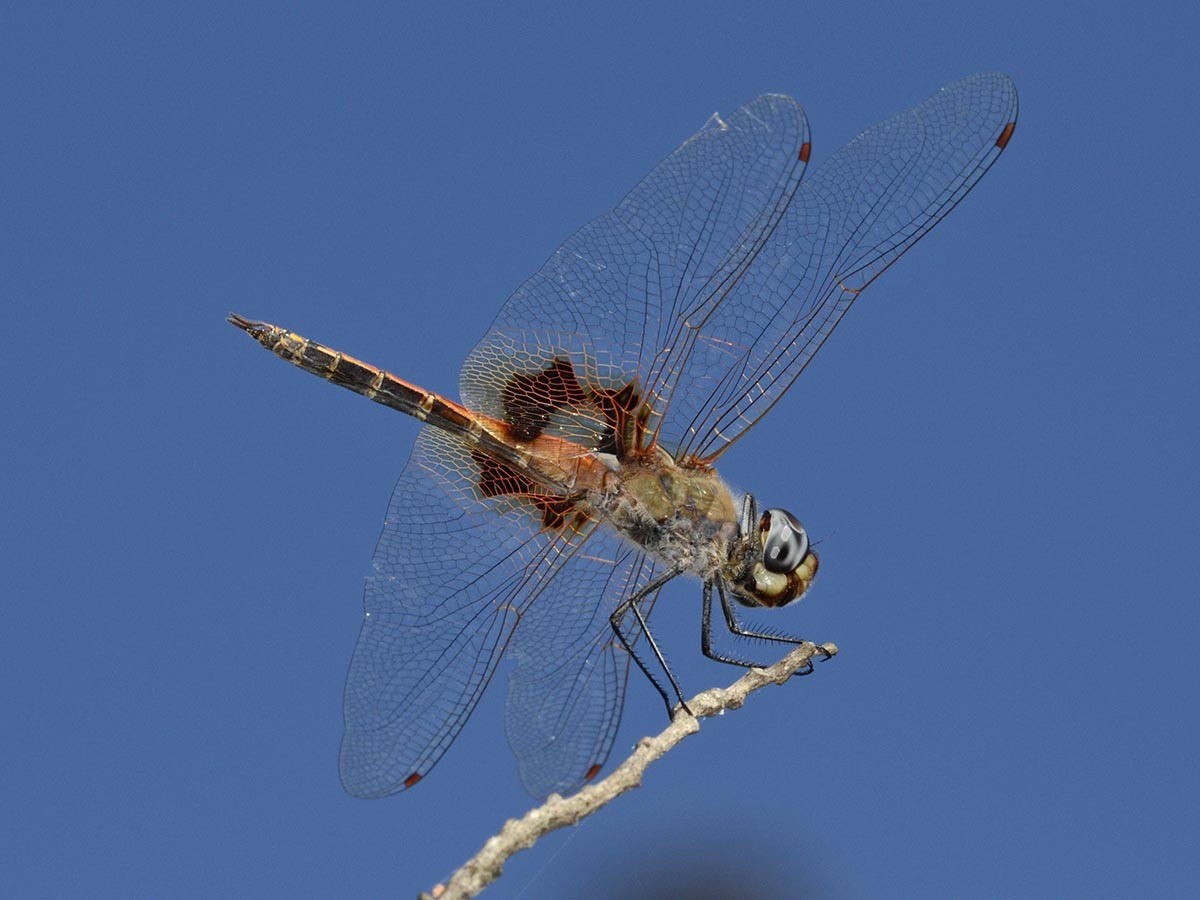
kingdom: Animalia
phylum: Arthropoda
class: Insecta
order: Odonata
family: Libellulidae
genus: Tramea
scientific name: Tramea basilaris
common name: Keyhole glider
